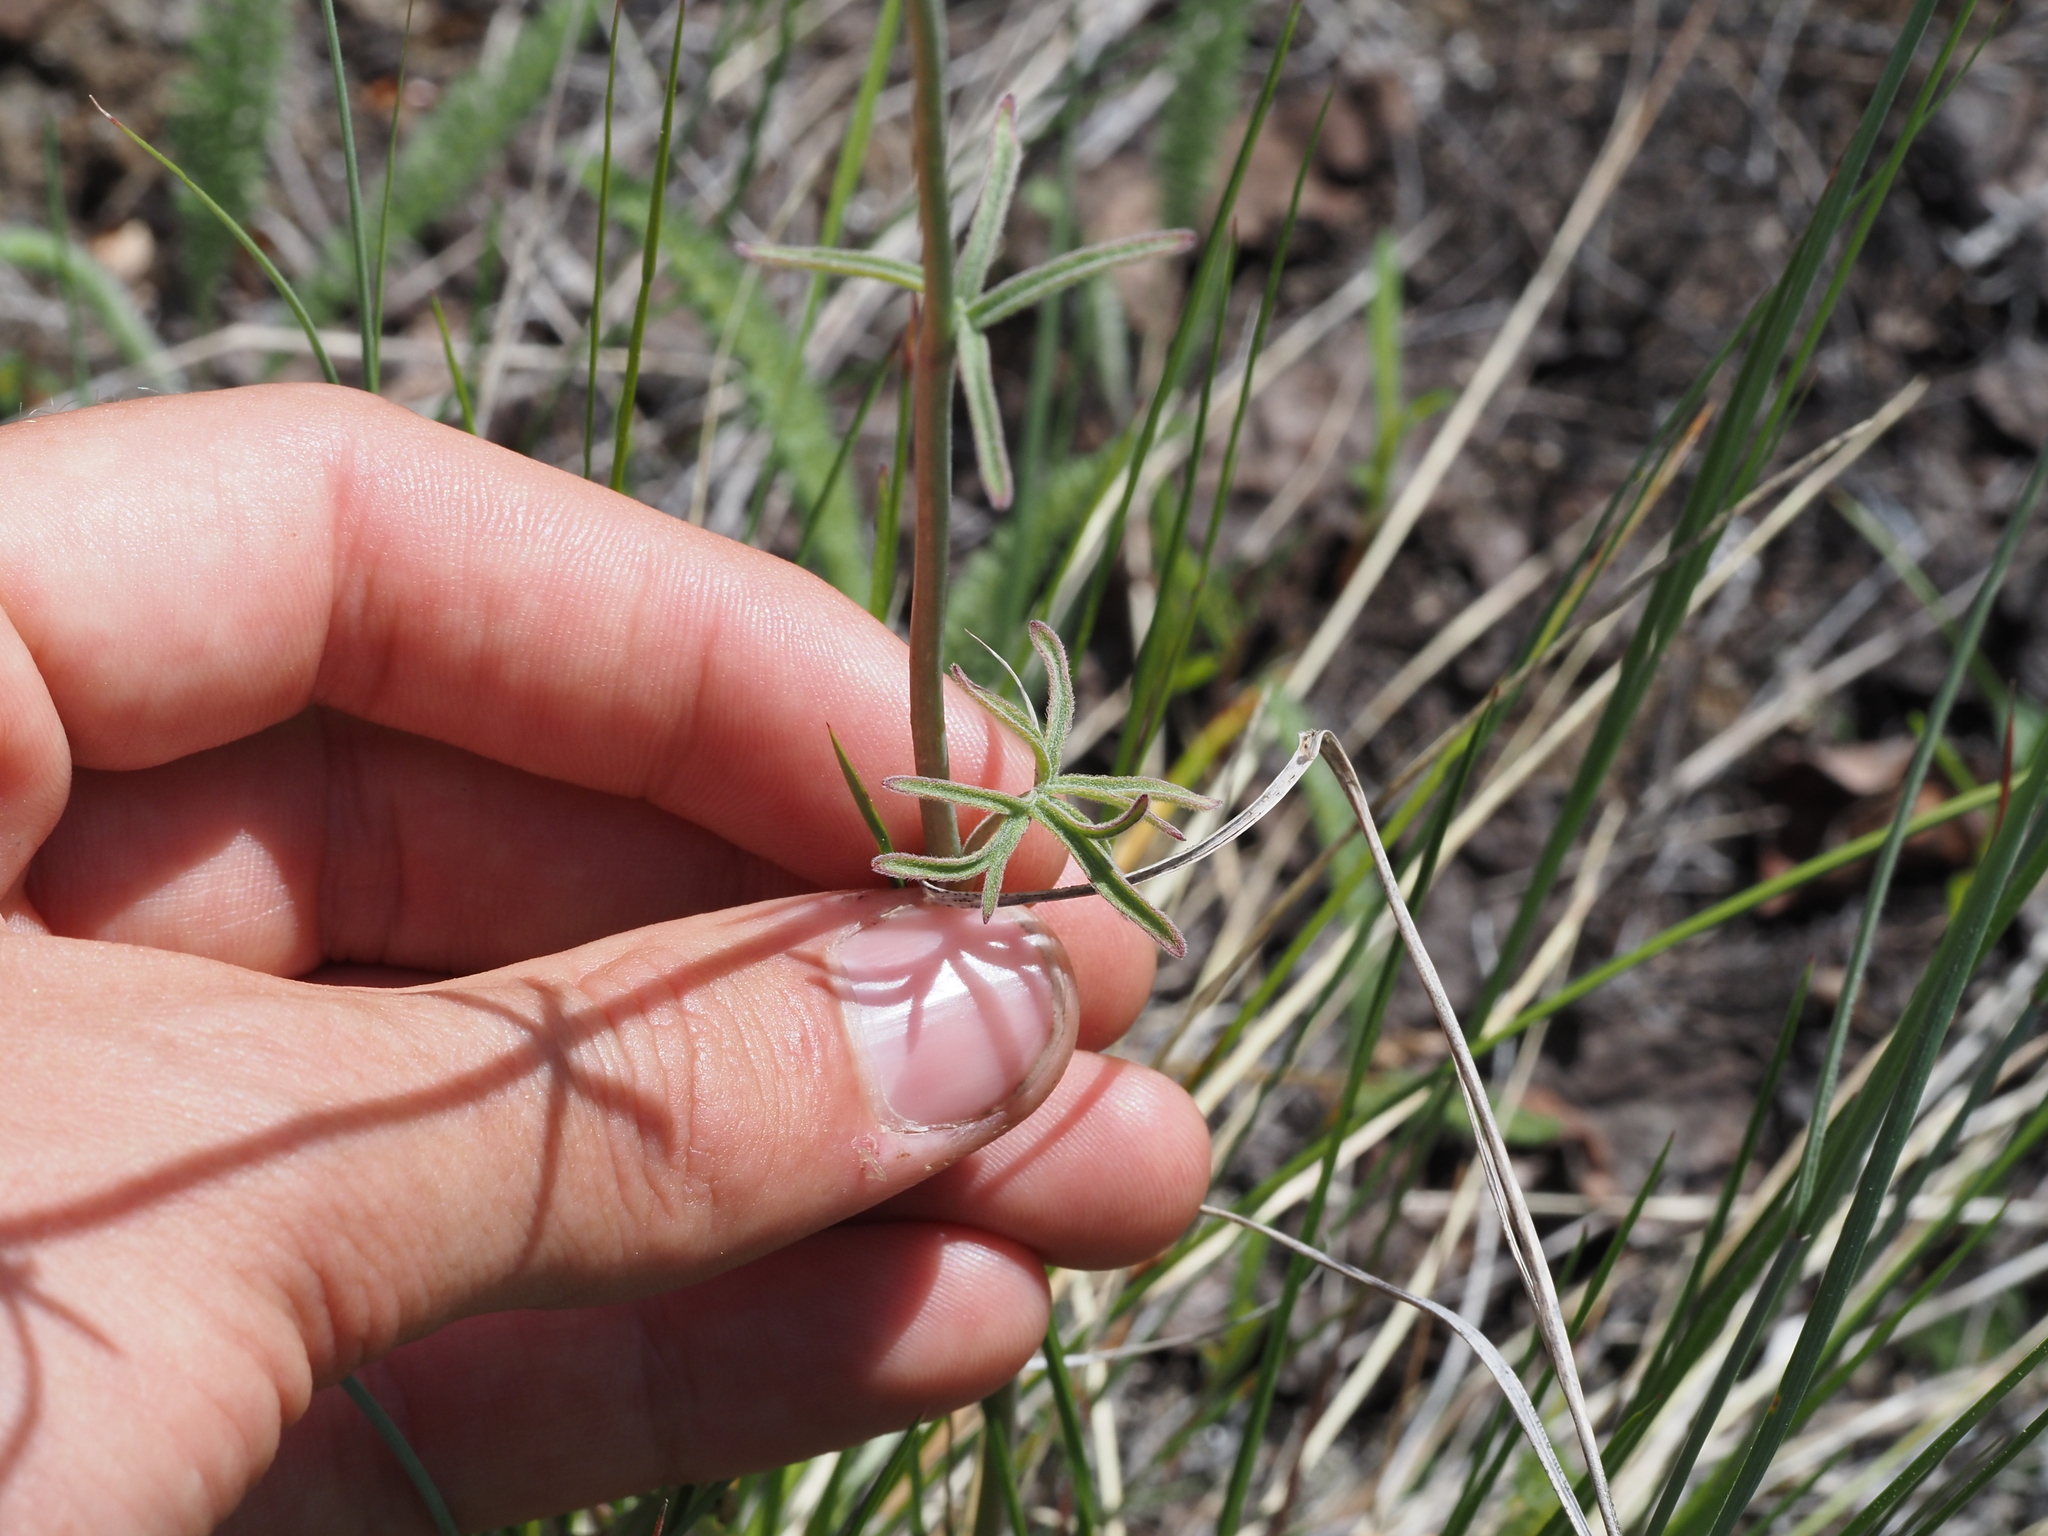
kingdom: Plantae
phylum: Tracheophyta
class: Magnoliopsida
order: Ranunculales
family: Ranunculaceae
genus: Delphinium
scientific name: Delphinium nuttallianum
